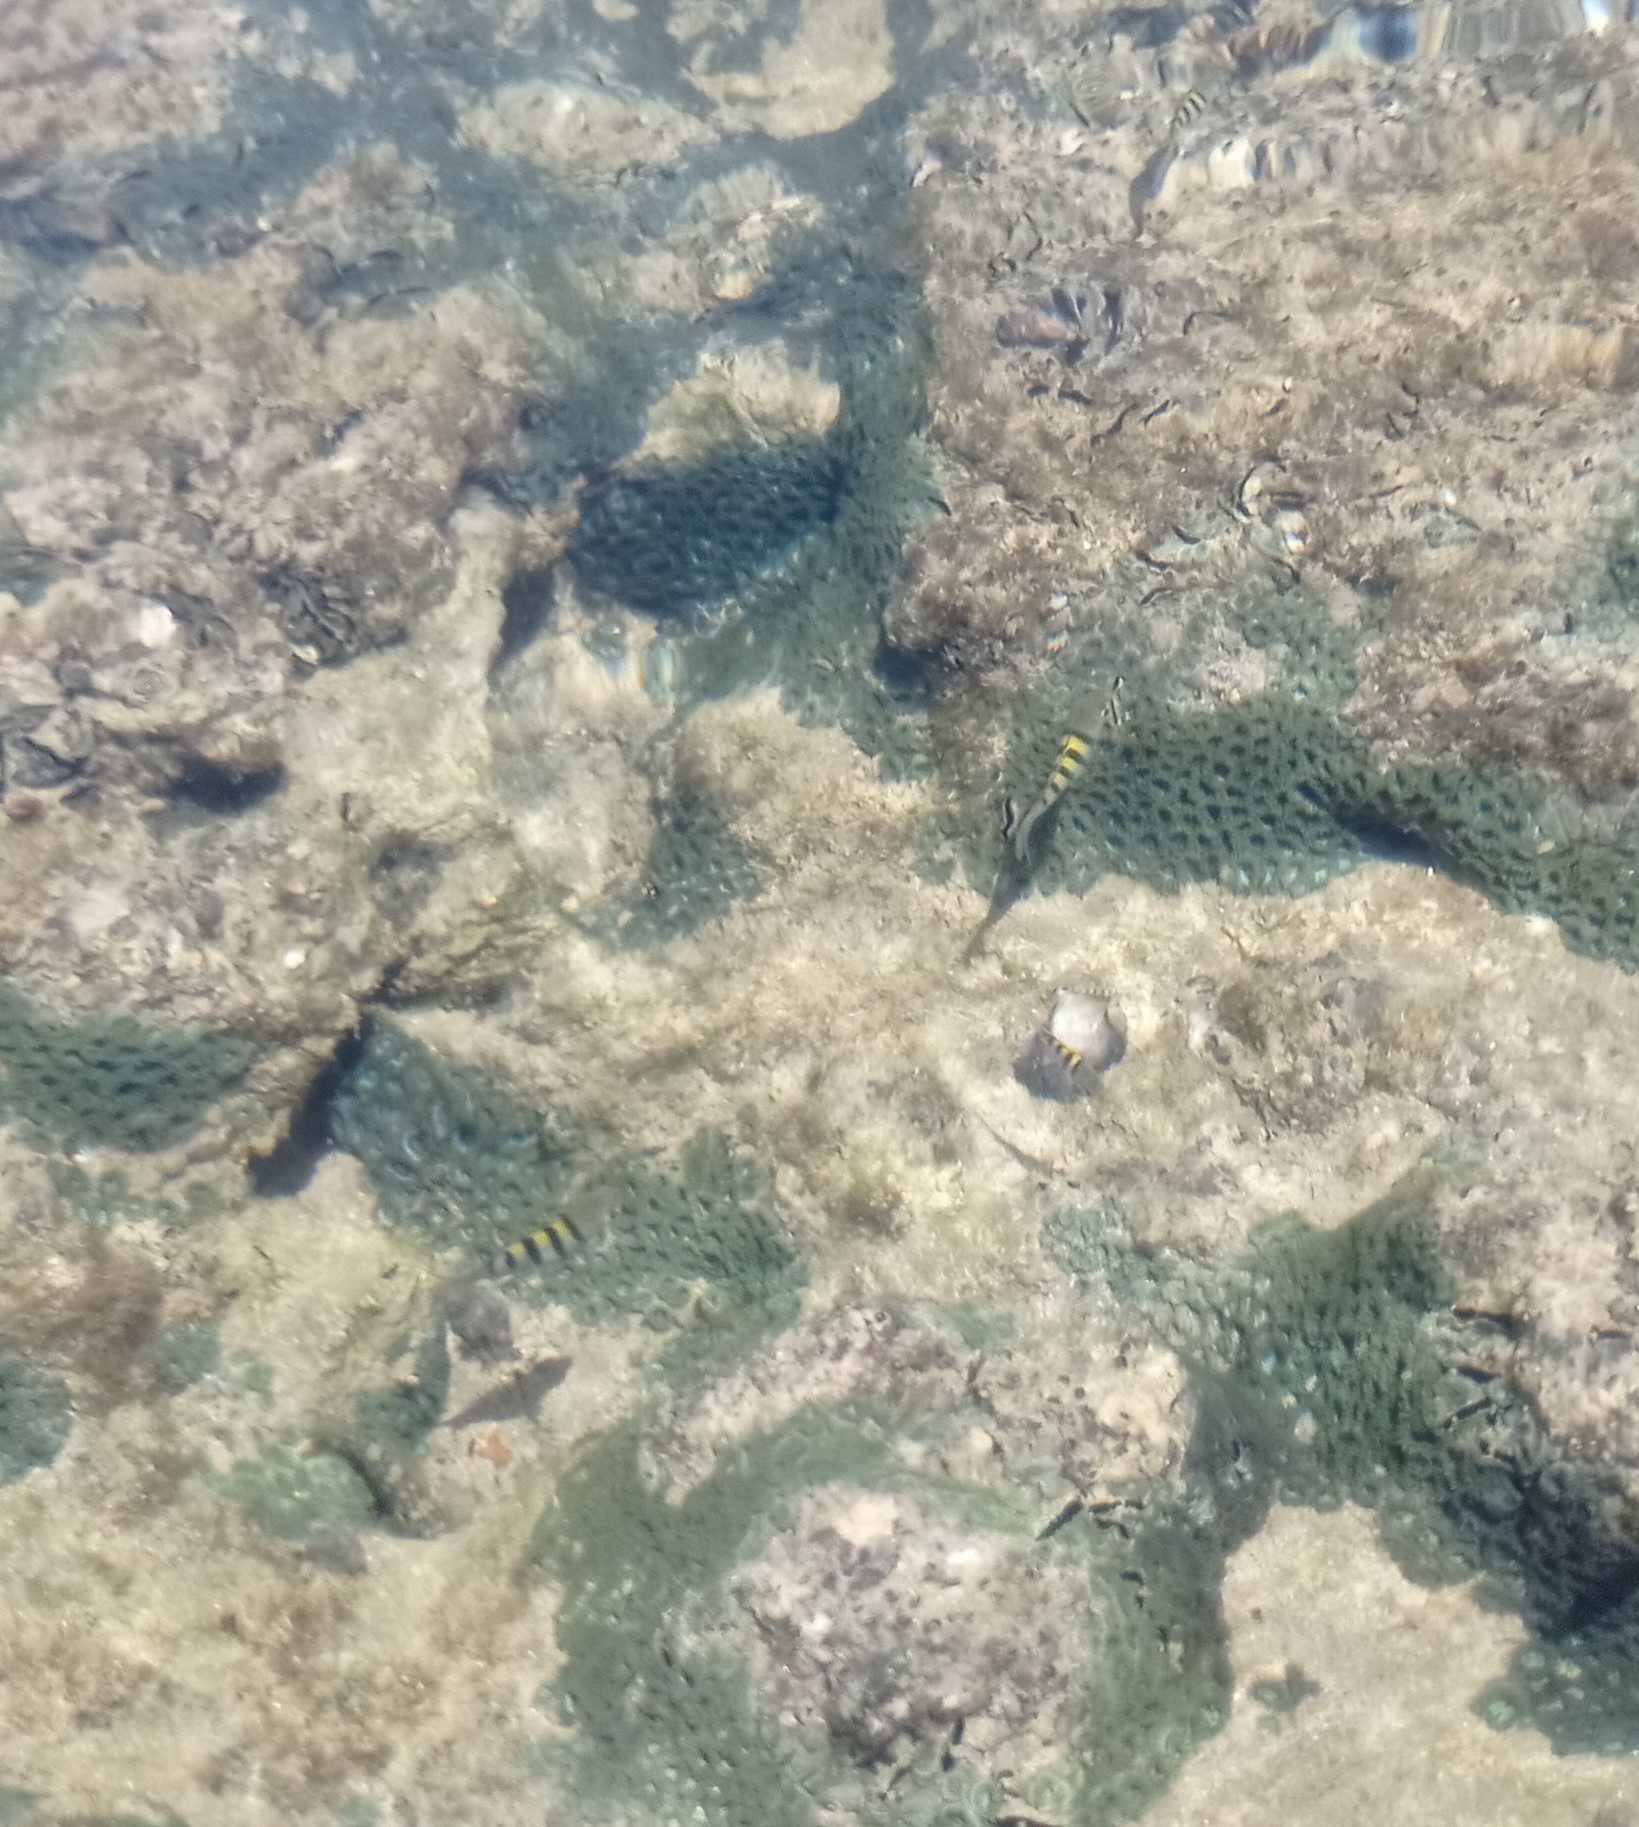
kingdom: Animalia
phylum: Chordata
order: Perciformes
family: Pomacentridae
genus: Abudefduf
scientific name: Abudefduf saxatilis
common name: Sergeant major
